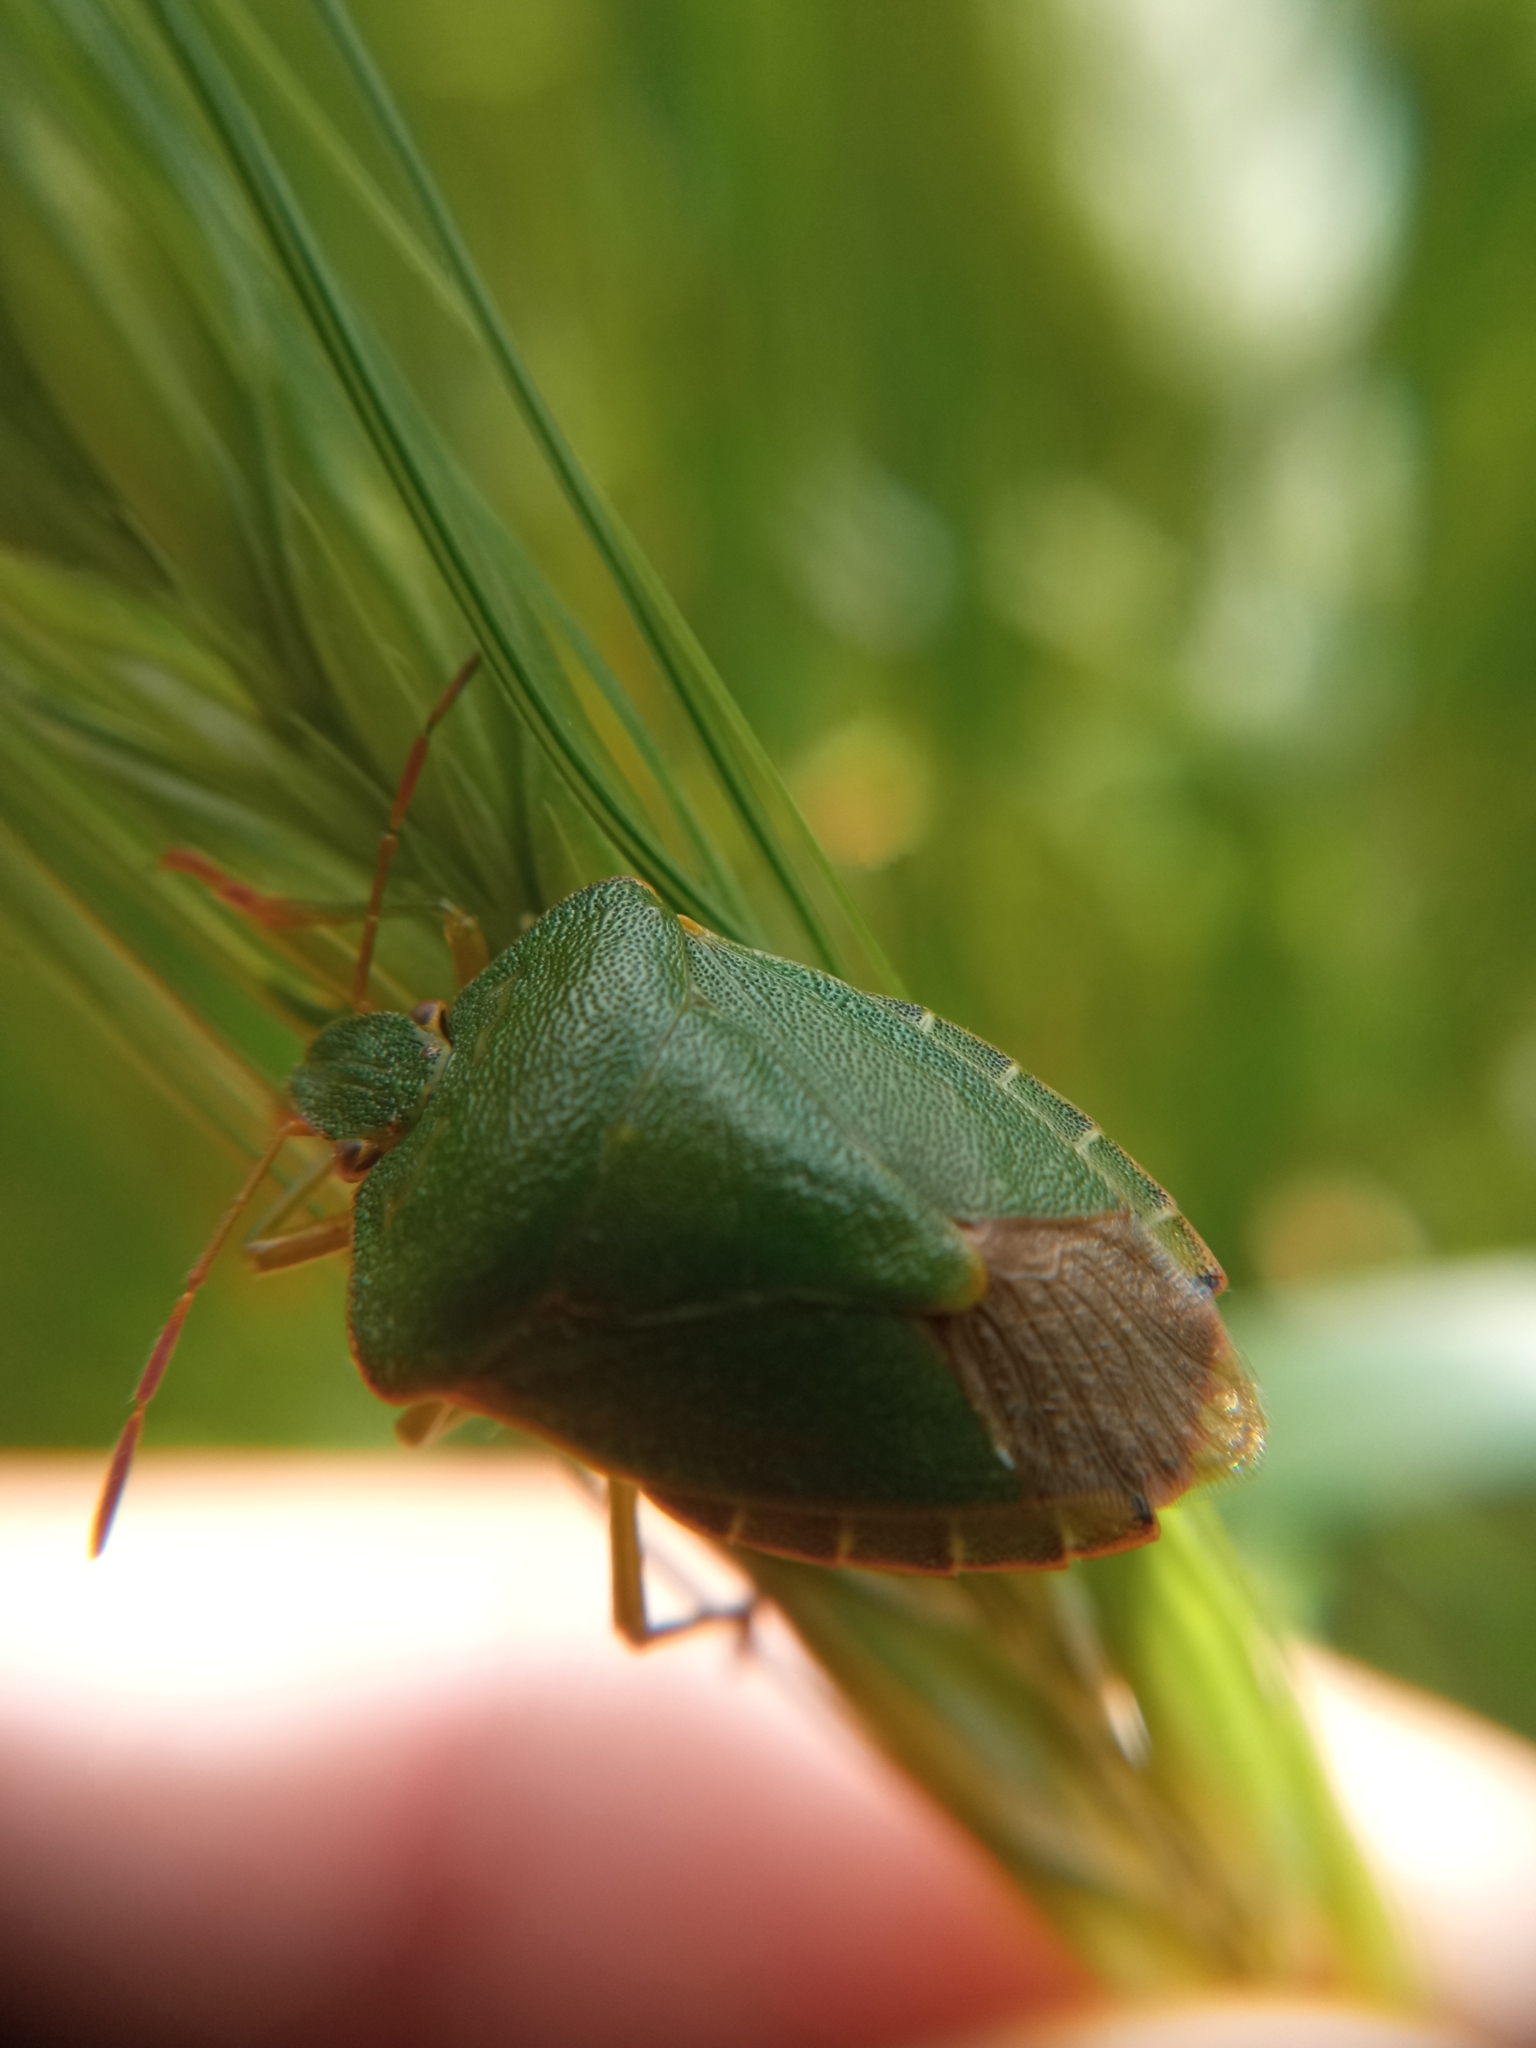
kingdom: Animalia
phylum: Arthropoda
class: Insecta
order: Hemiptera
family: Pentatomidae
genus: Palomena
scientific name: Palomena prasina
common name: Green shieldbug
